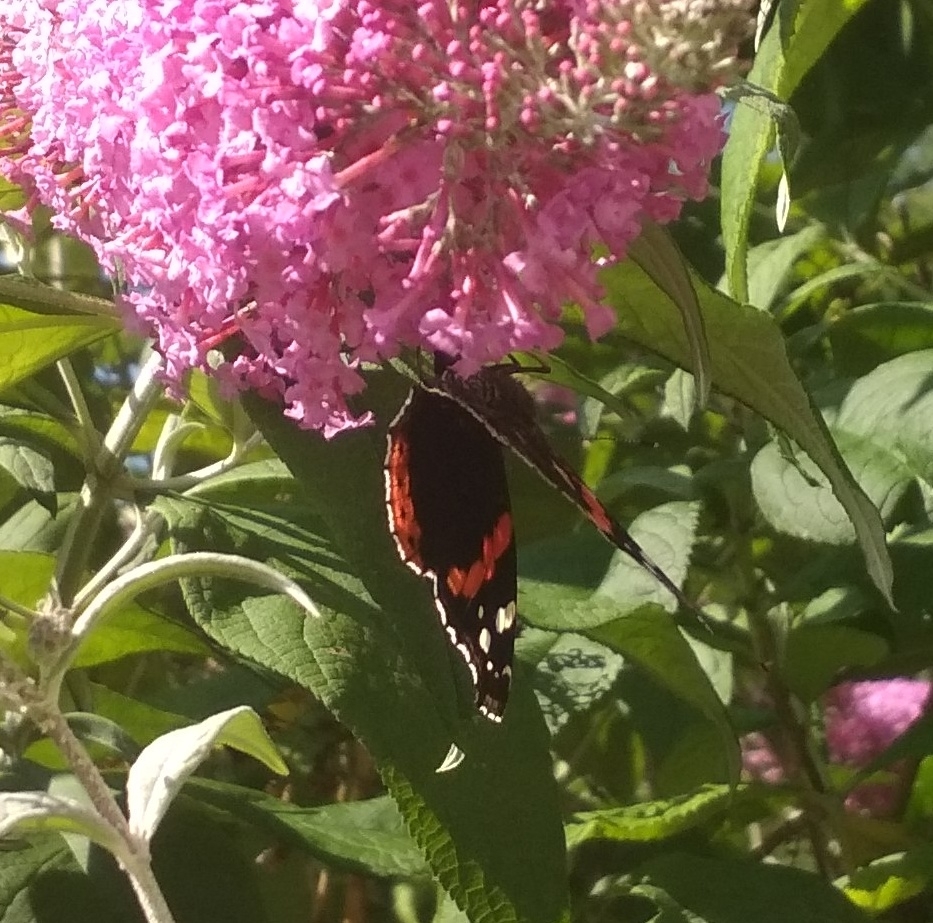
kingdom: Animalia
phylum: Arthropoda
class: Insecta
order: Lepidoptera
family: Nymphalidae
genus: Vanessa
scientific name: Vanessa atalanta
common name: Red admiral
